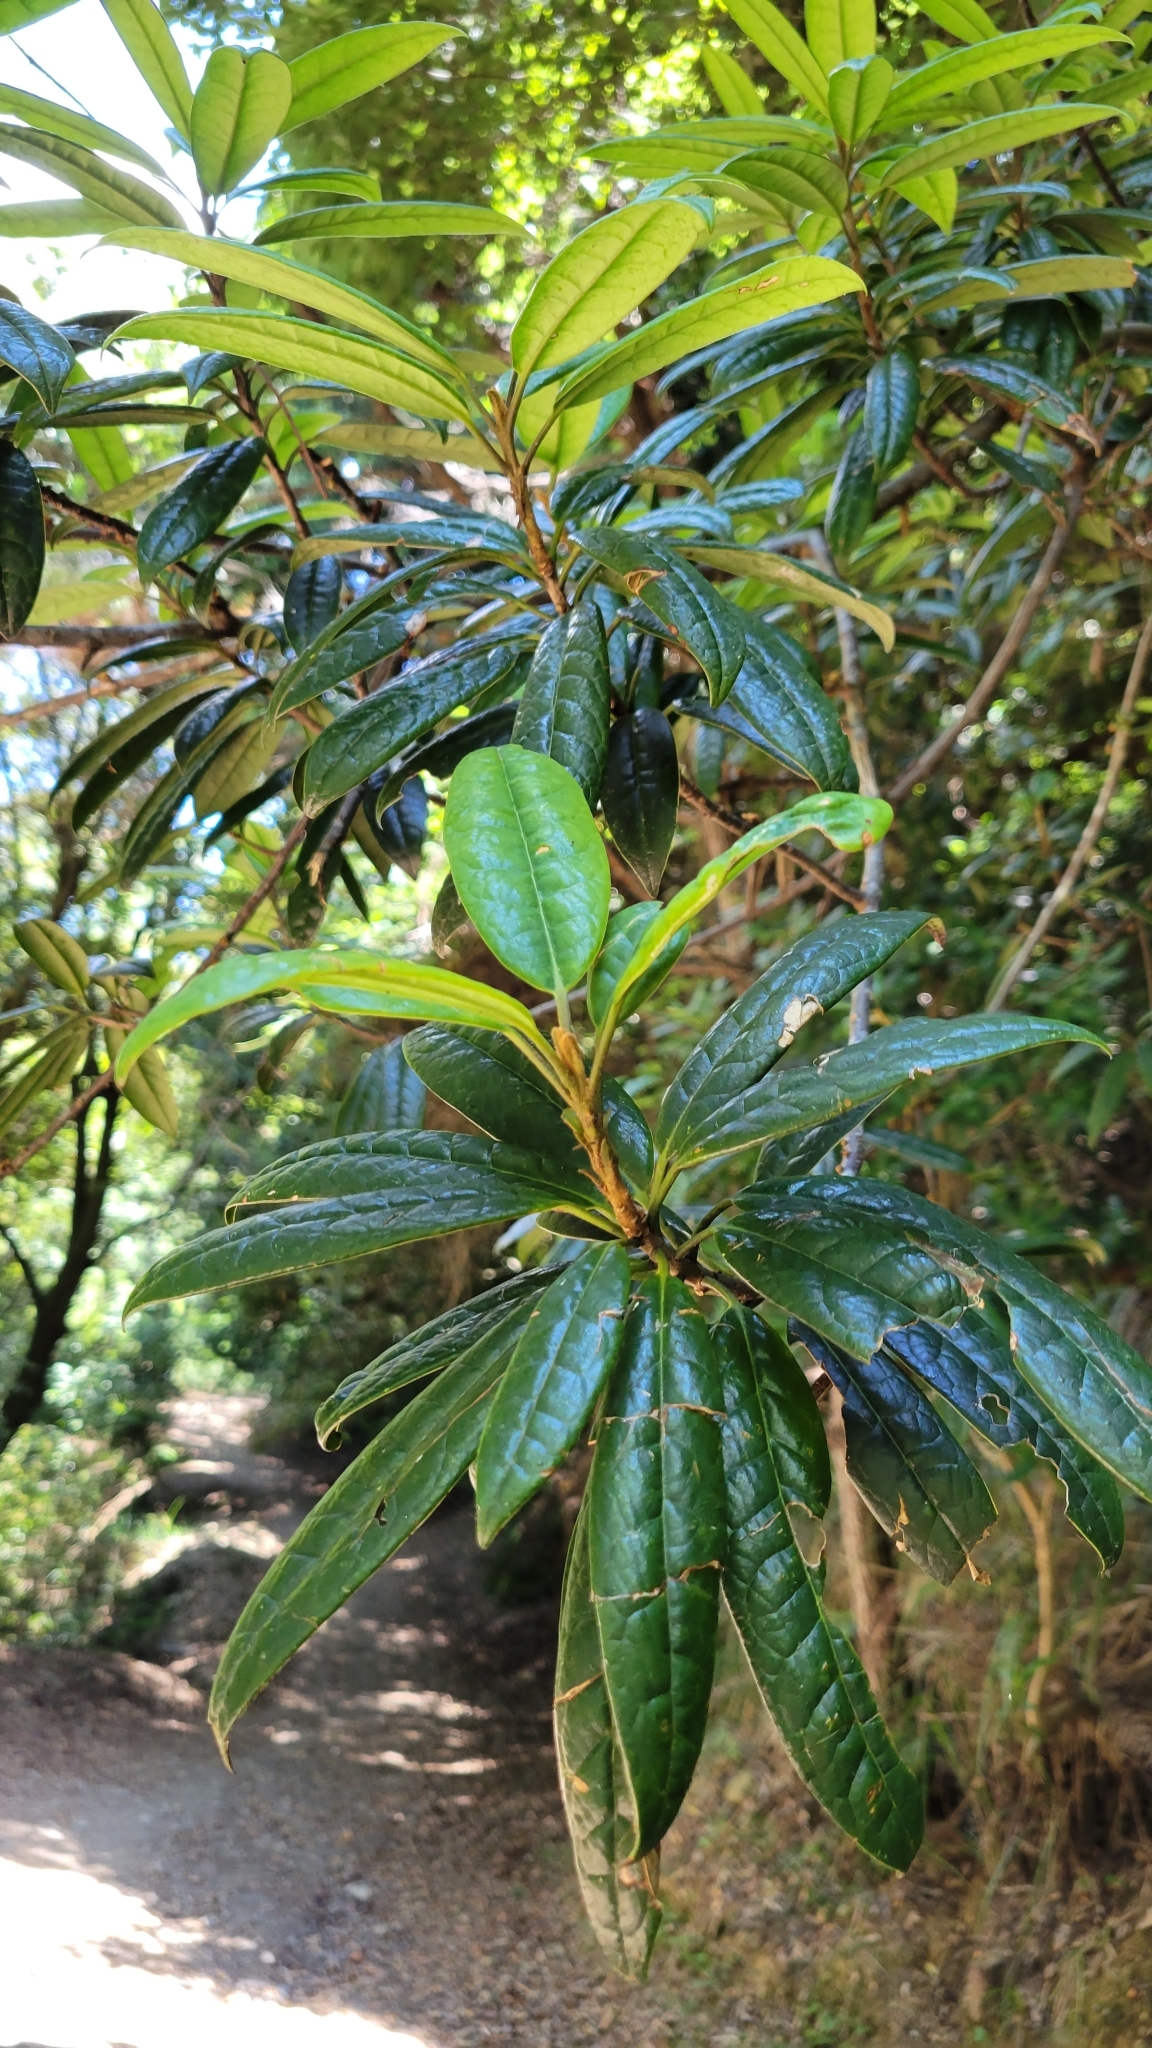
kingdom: Plantae
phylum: Tracheophyta
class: Magnoliopsida
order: Ericales
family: Symplocaceae
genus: Symplocos
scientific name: Symplocos stellaris
